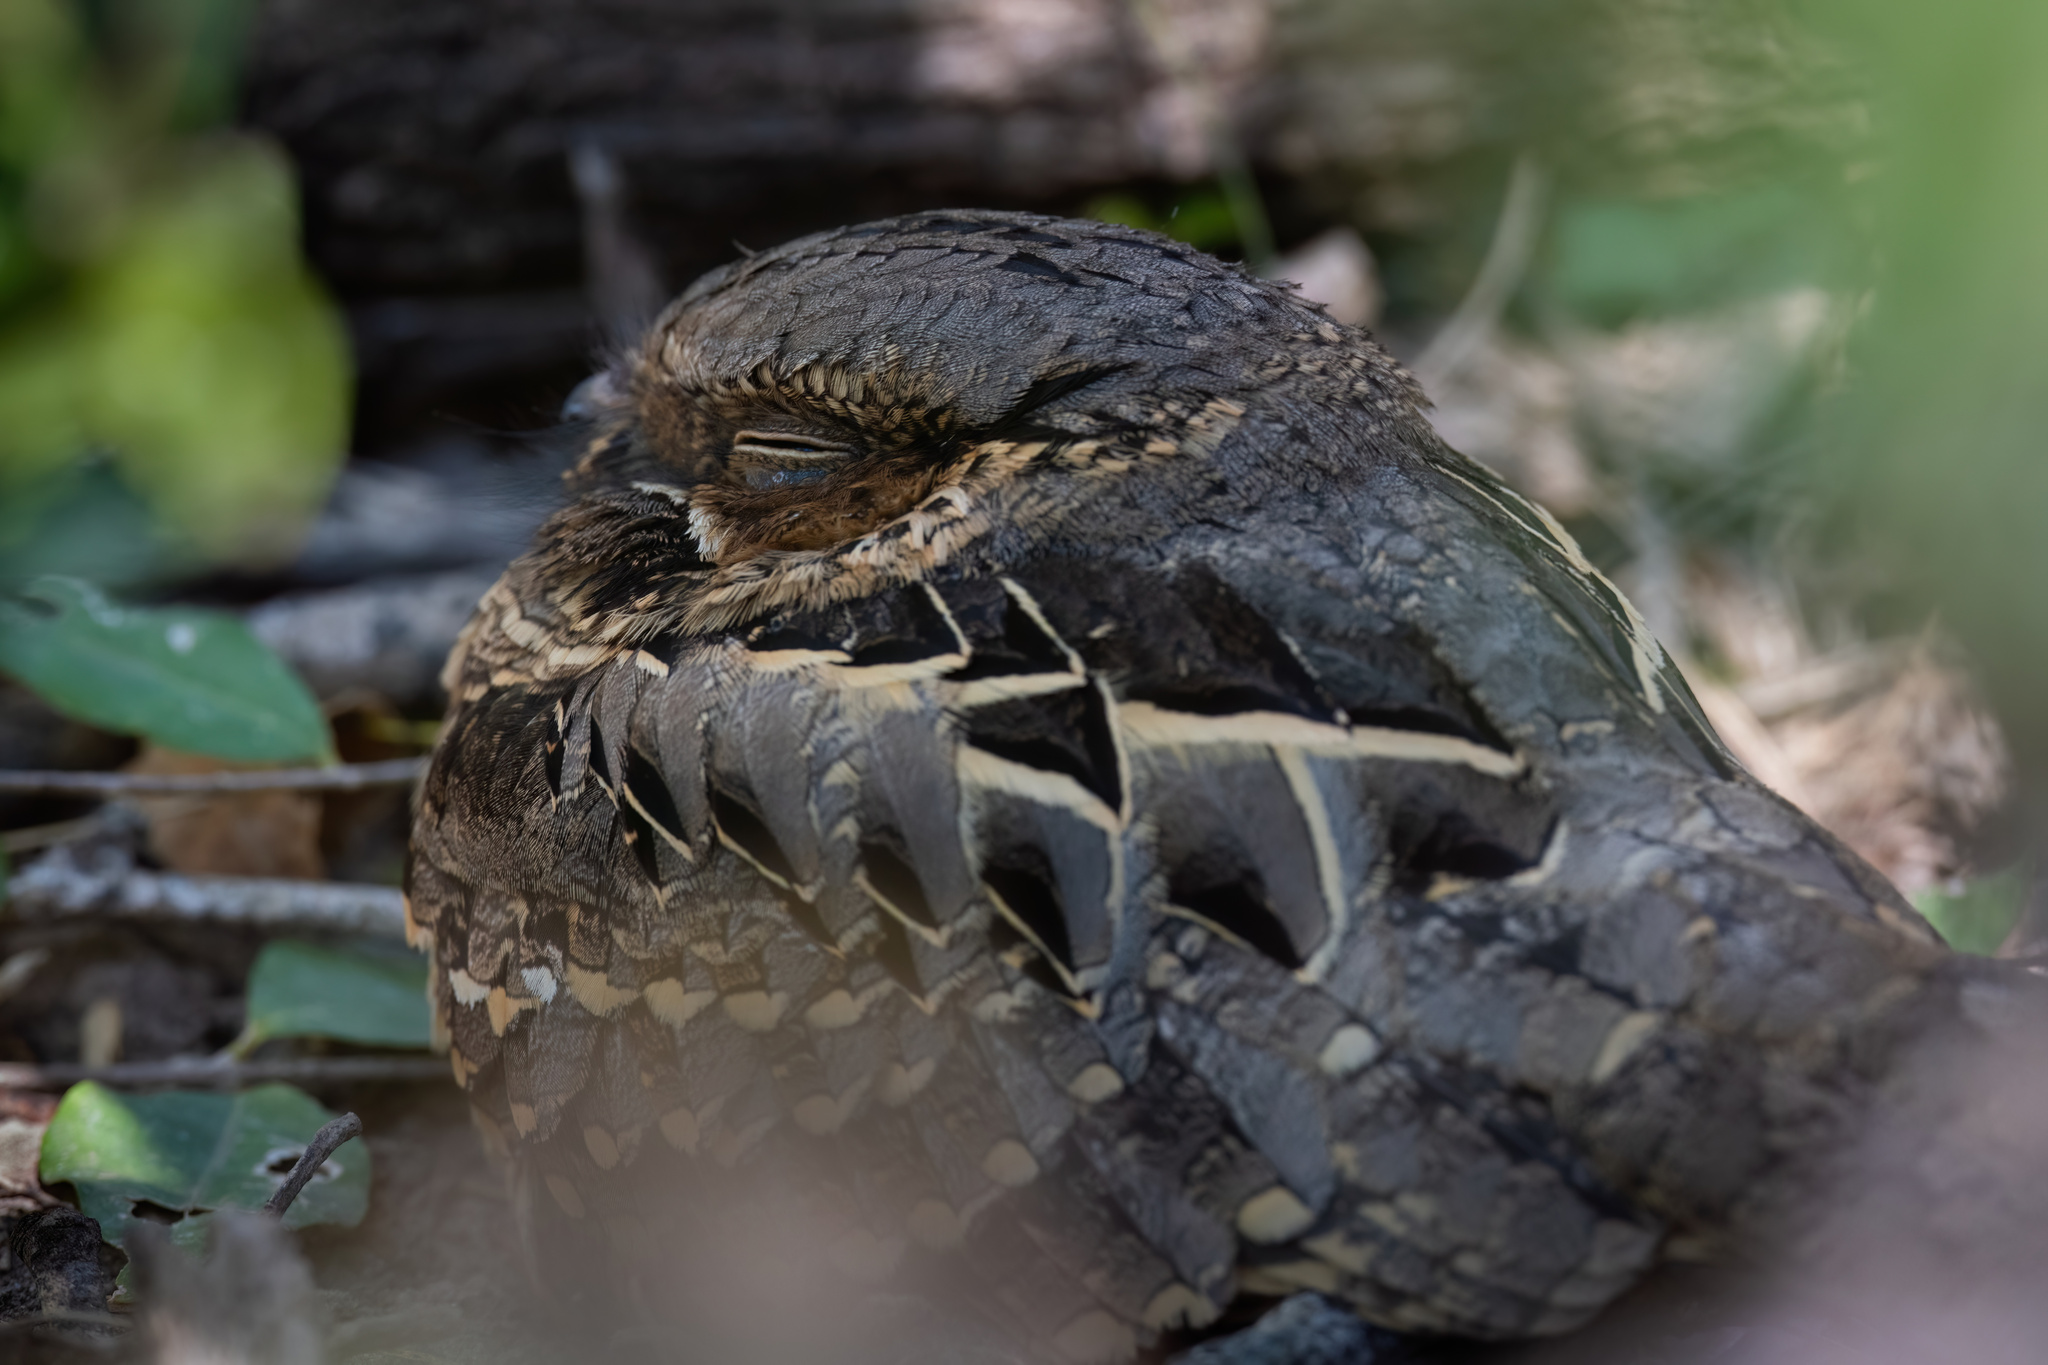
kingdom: Animalia
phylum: Chordata
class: Aves
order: Caprimulgiformes
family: Caprimulgidae
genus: Nyctidromus
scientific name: Nyctidromus albicollis
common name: Pauraque
